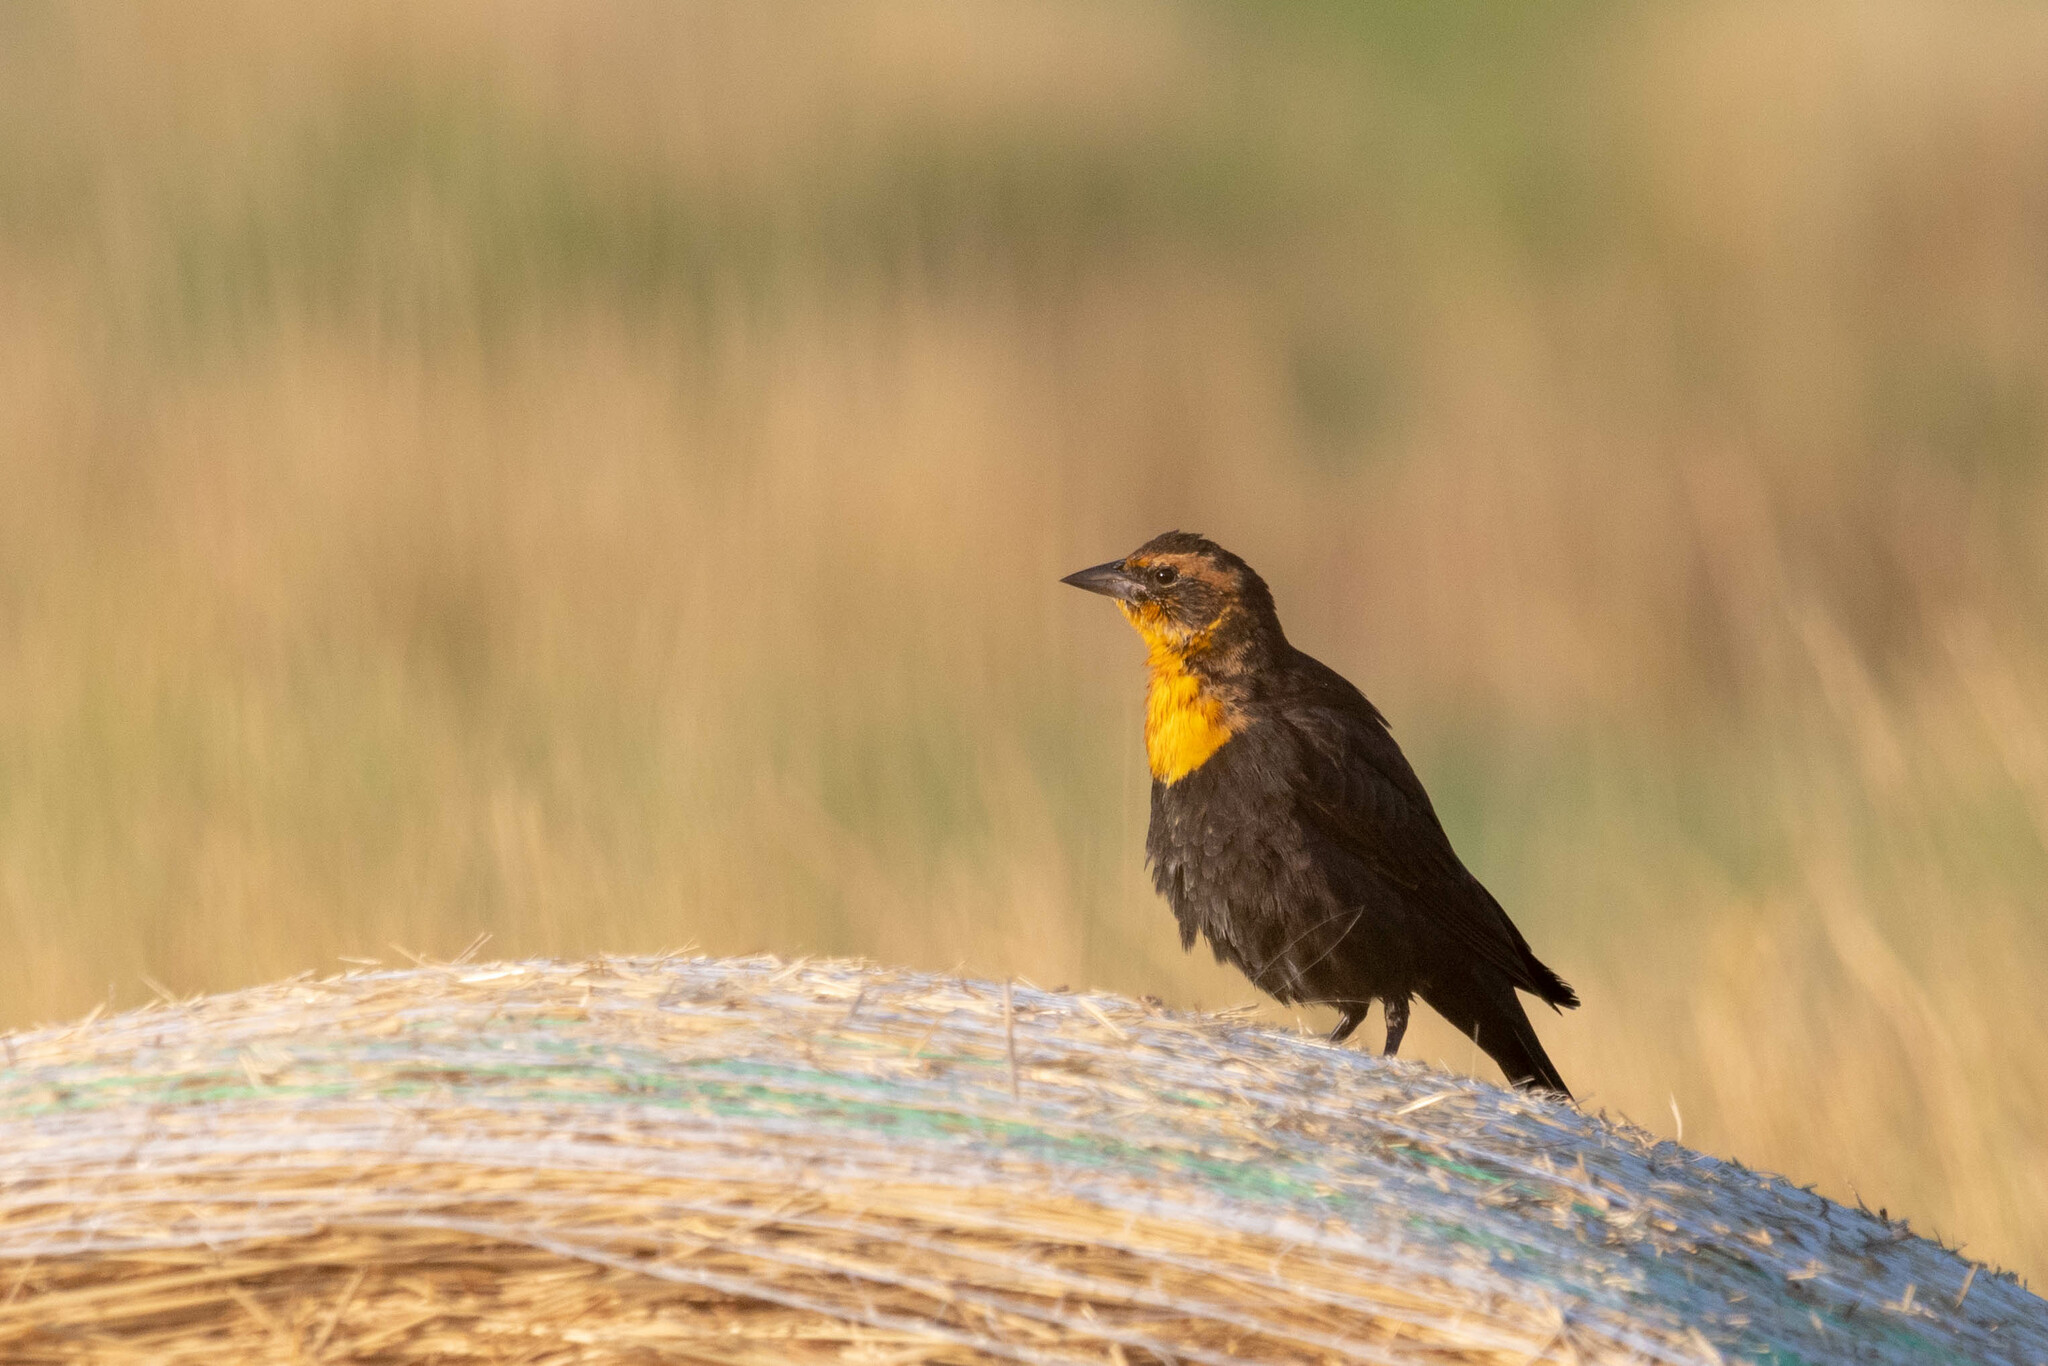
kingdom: Animalia
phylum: Chordata
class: Aves
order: Passeriformes
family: Icteridae
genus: Xanthocephalus
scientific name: Xanthocephalus xanthocephalus
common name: Yellow-headed blackbird
